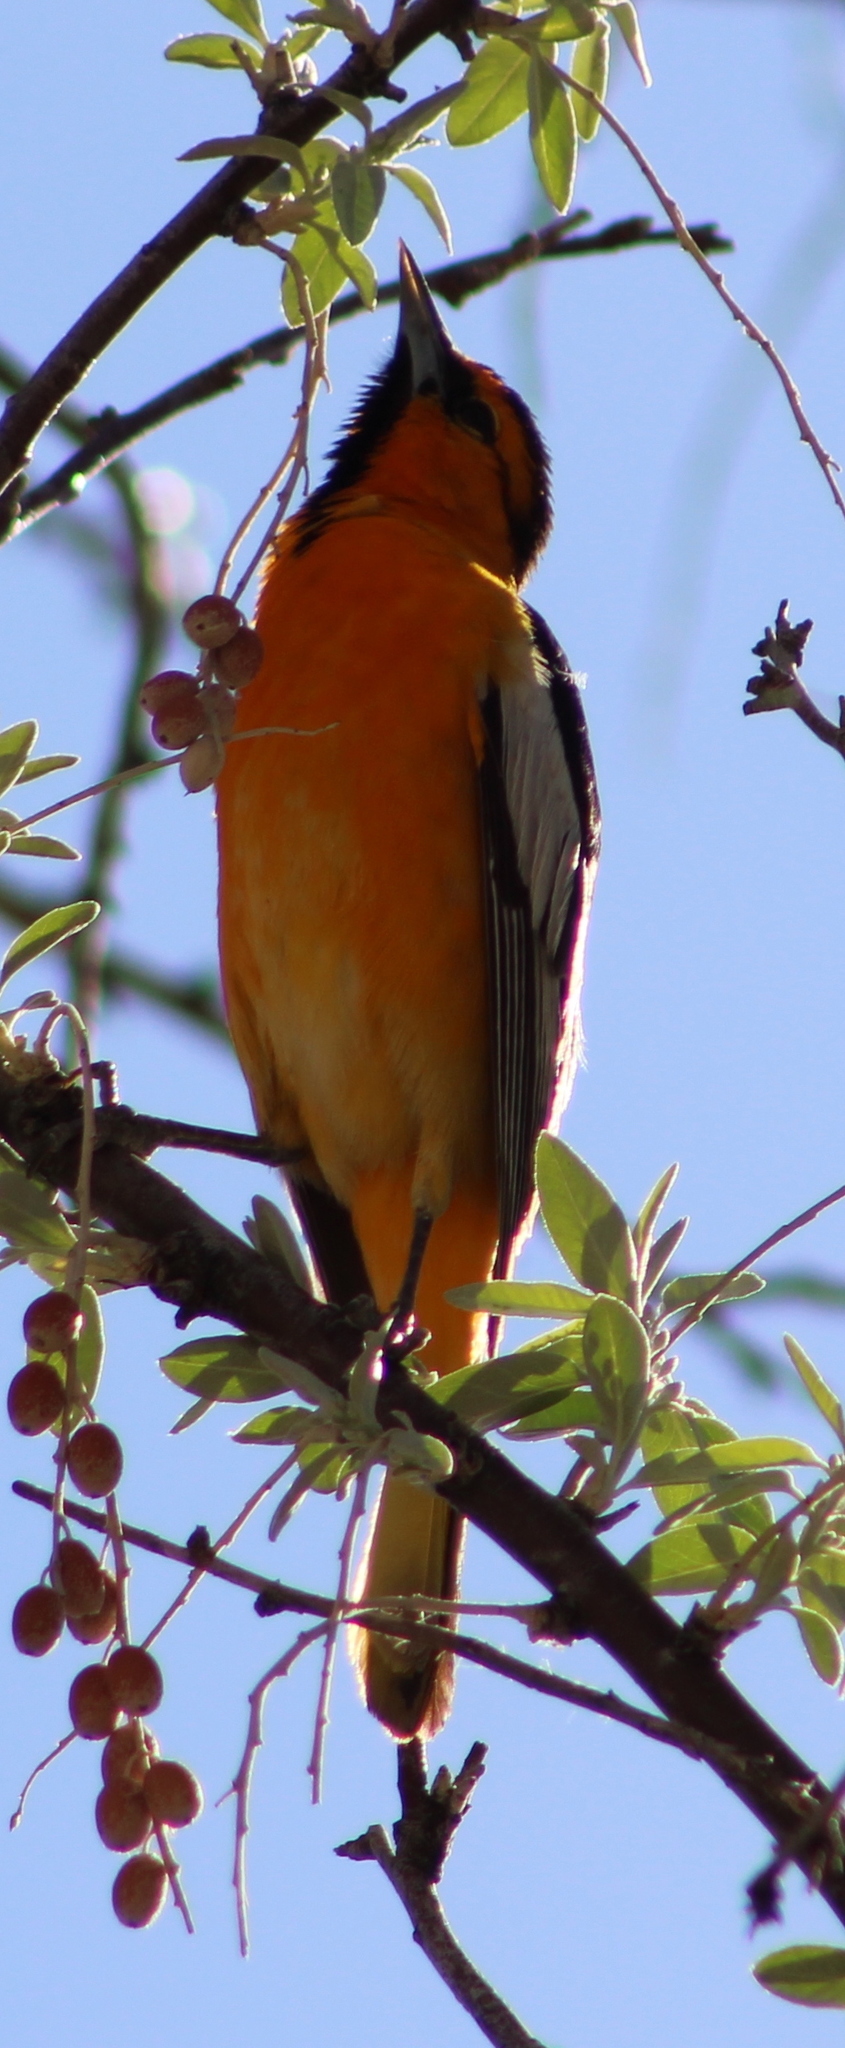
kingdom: Animalia
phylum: Chordata
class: Aves
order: Passeriformes
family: Icteridae
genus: Icterus
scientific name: Icterus bullockii
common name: Bullock's oriole
